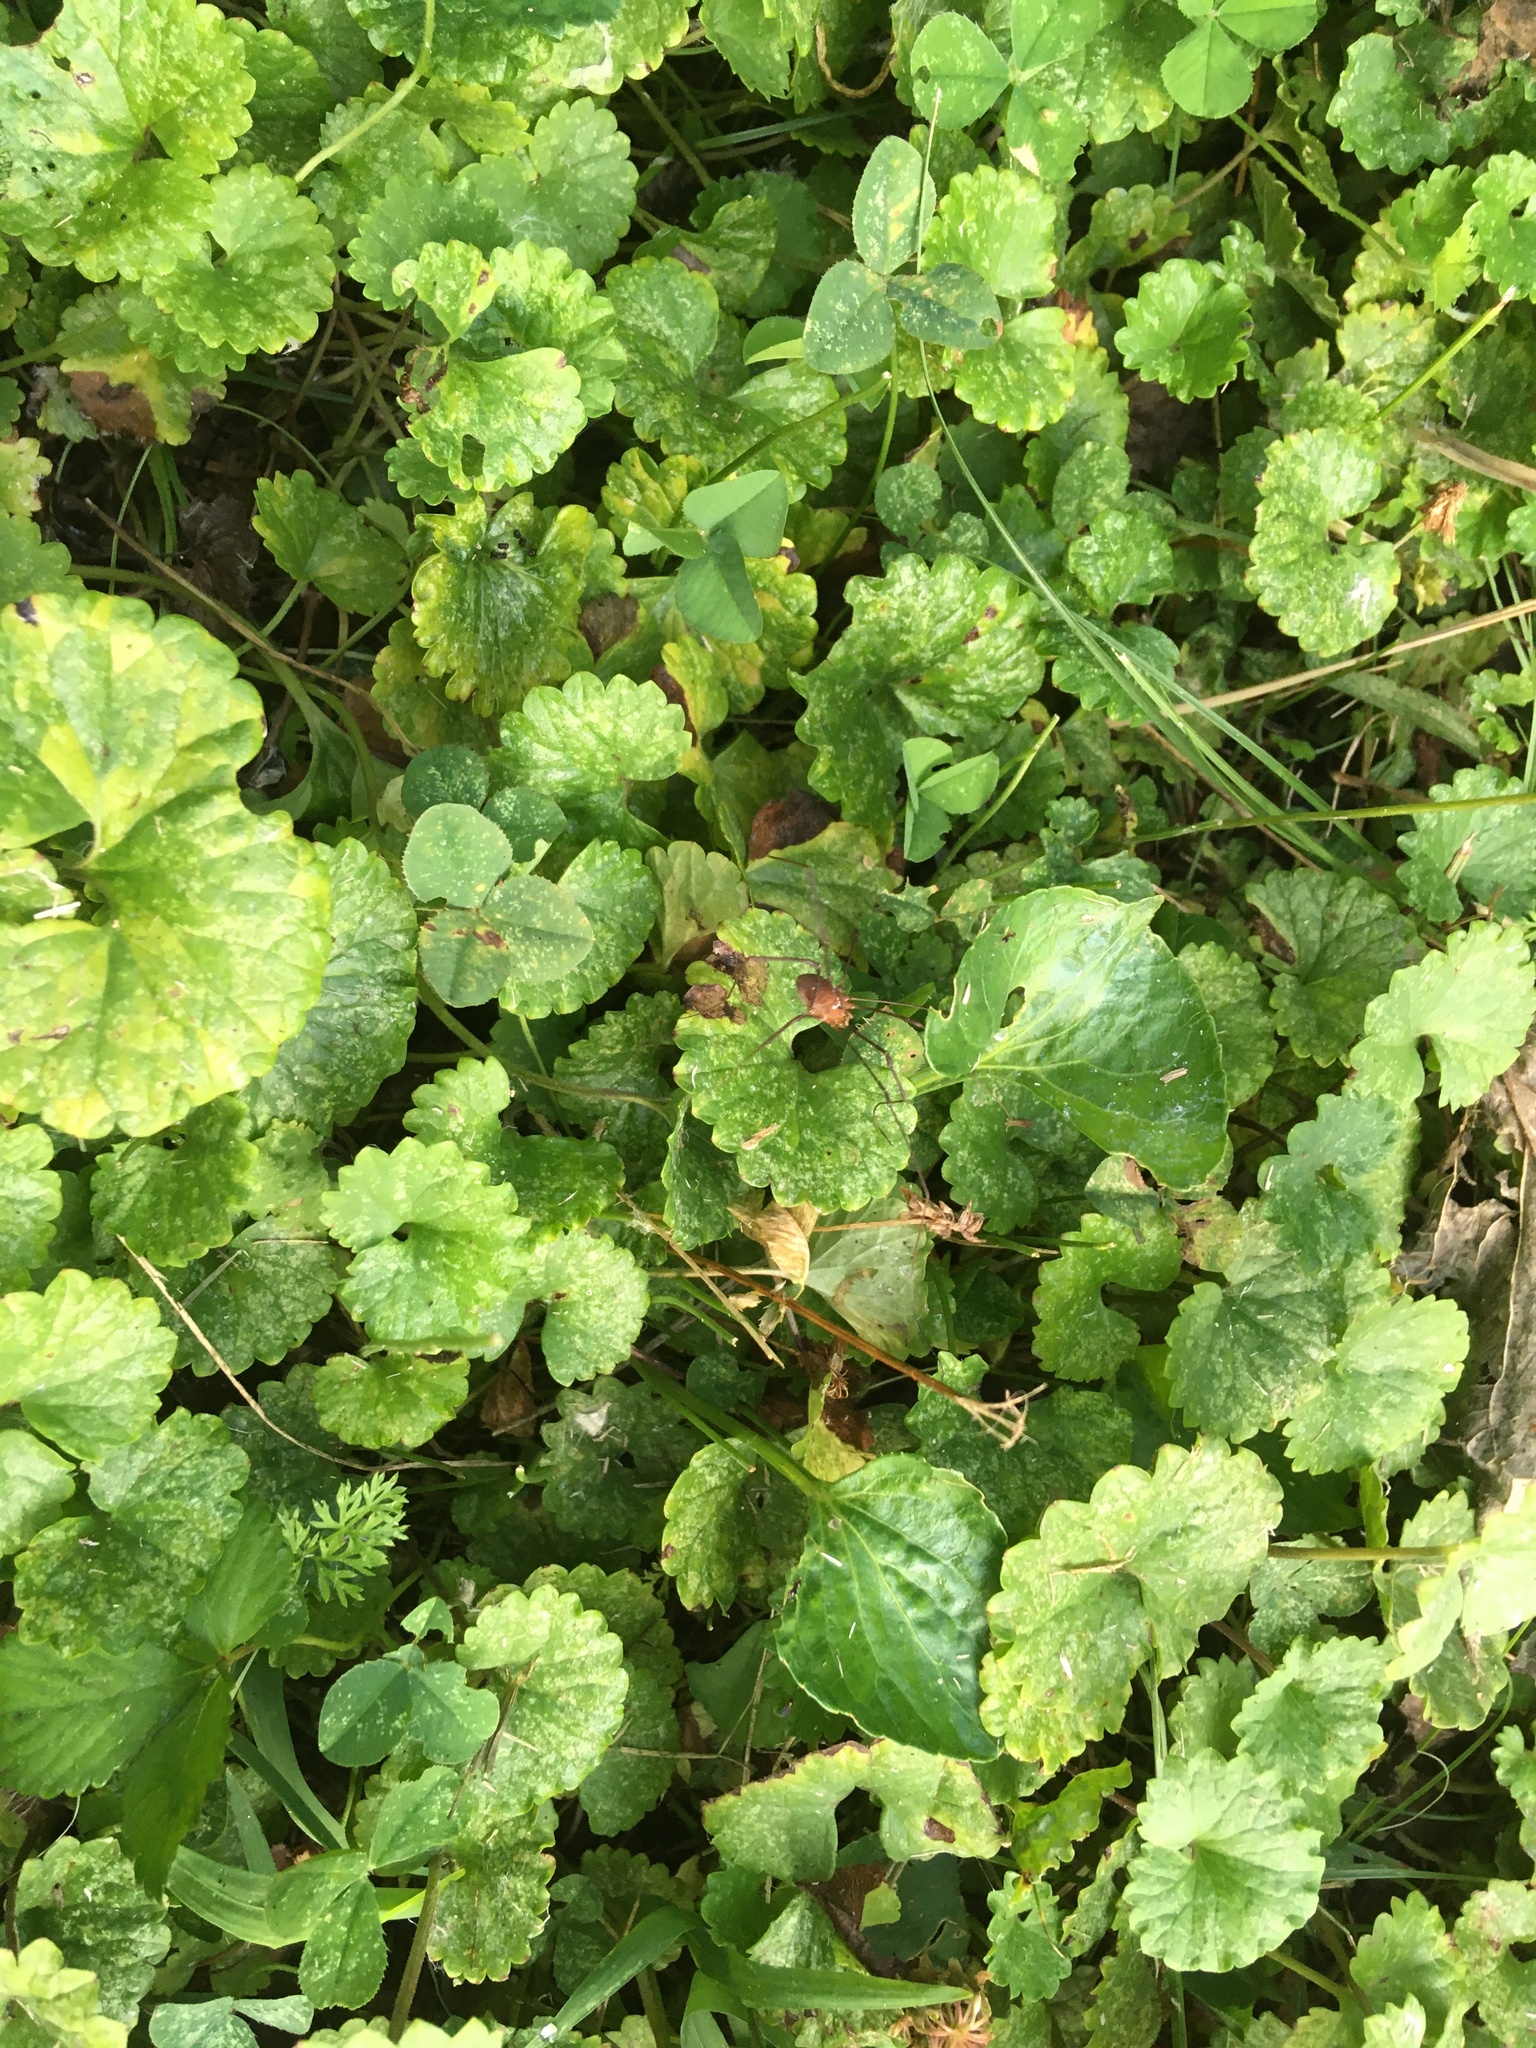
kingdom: Plantae
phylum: Tracheophyta
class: Magnoliopsida
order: Lamiales
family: Lamiaceae
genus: Glechoma
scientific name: Glechoma hederacea
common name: Ground ivy
